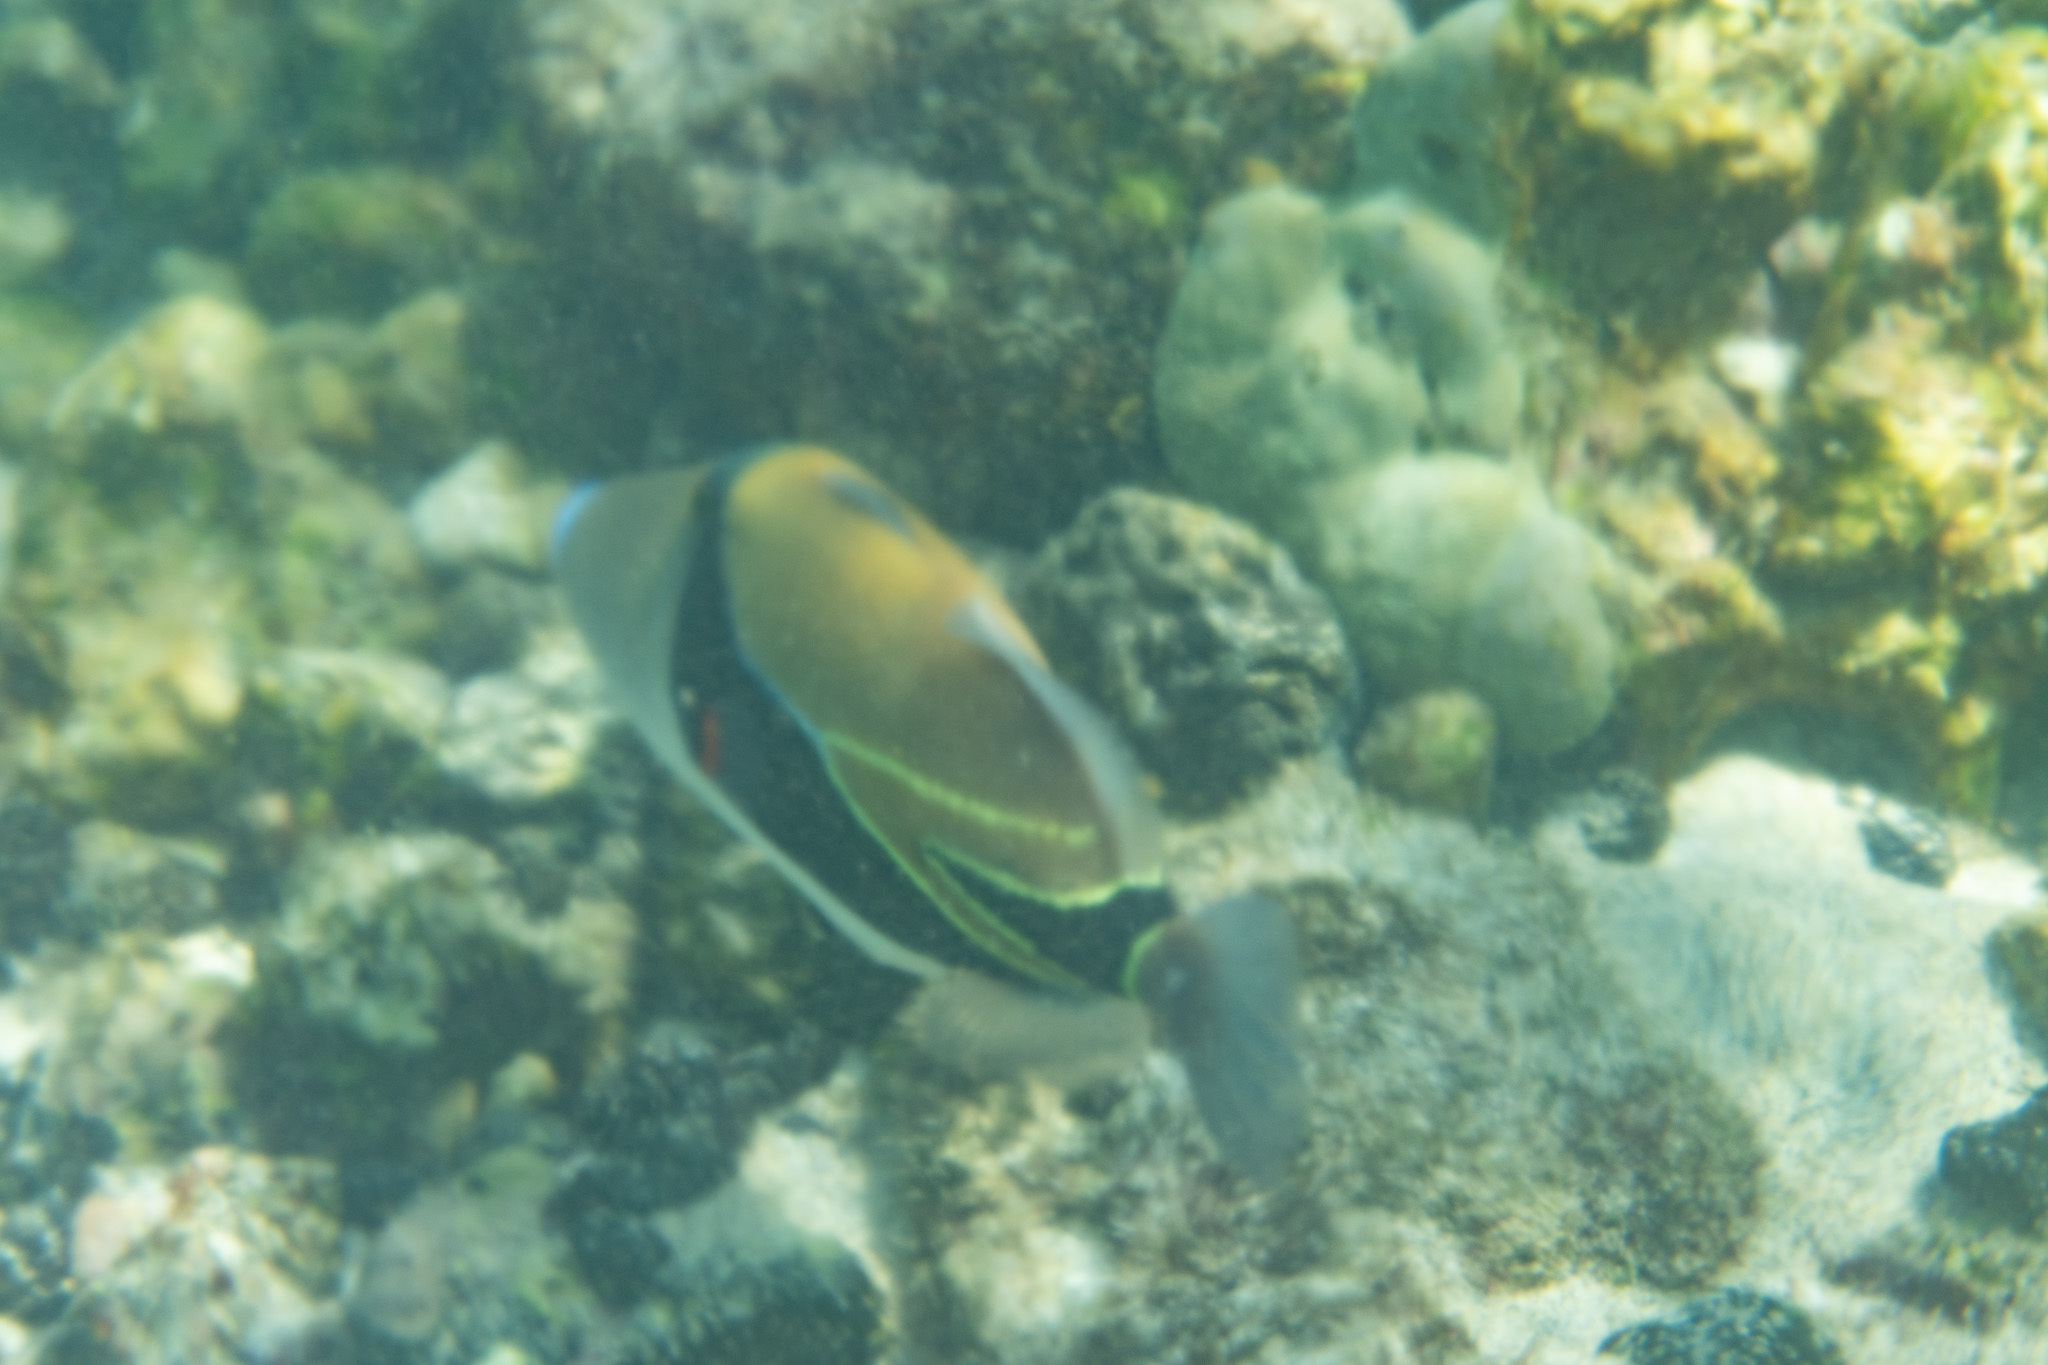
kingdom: Animalia
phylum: Chordata
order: Tetraodontiformes
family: Balistidae
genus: Rhinecanthus
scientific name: Rhinecanthus rectangulus
